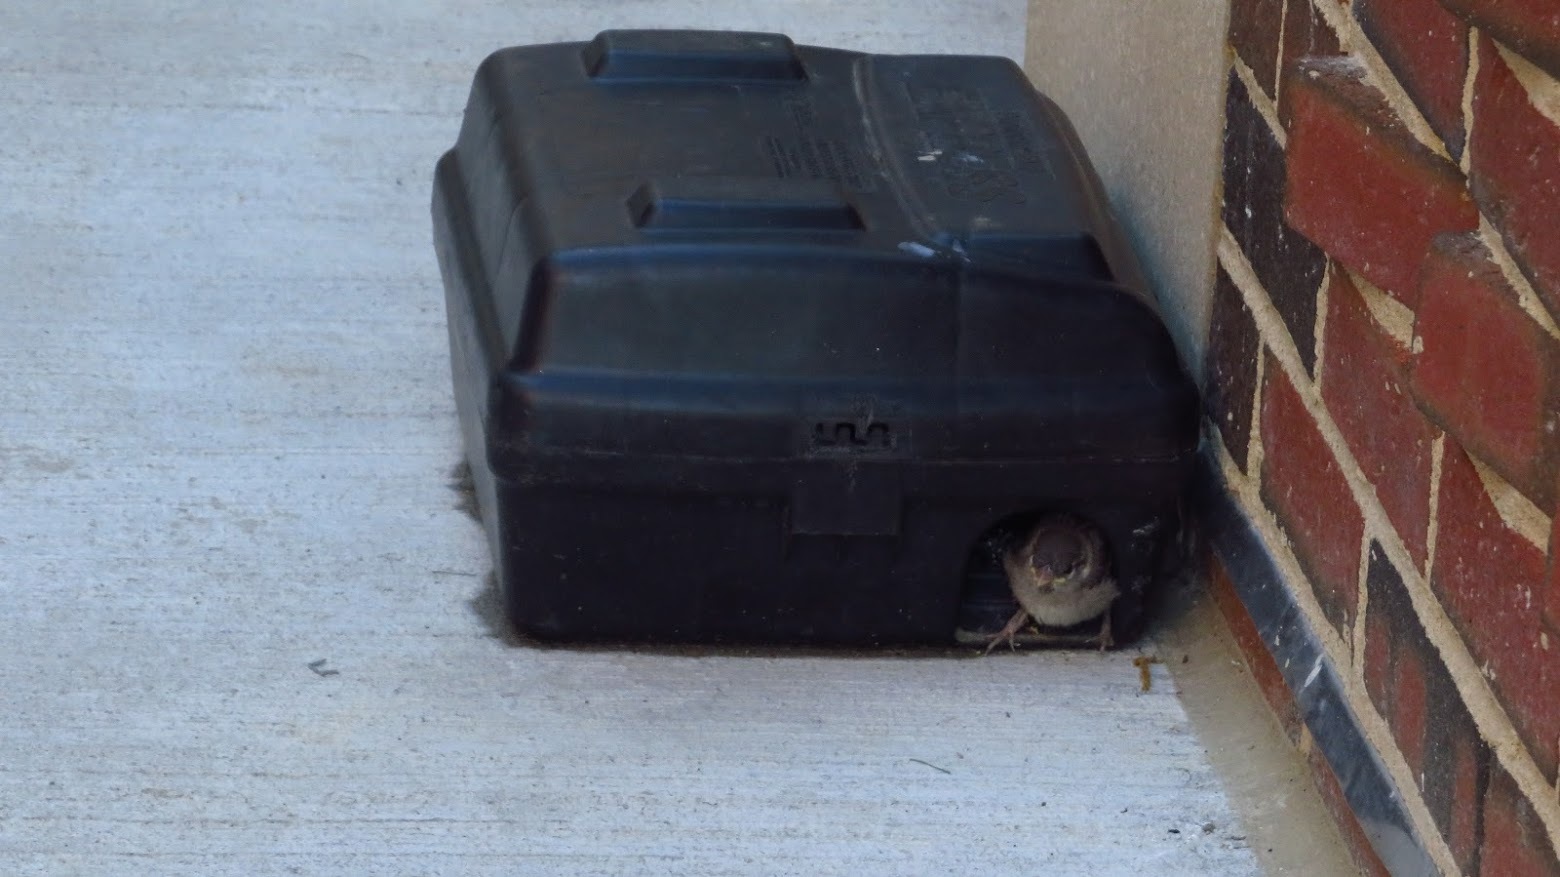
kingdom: Animalia
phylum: Chordata
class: Aves
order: Passeriformes
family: Passeridae
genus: Passer
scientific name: Passer domesticus
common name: House sparrow
